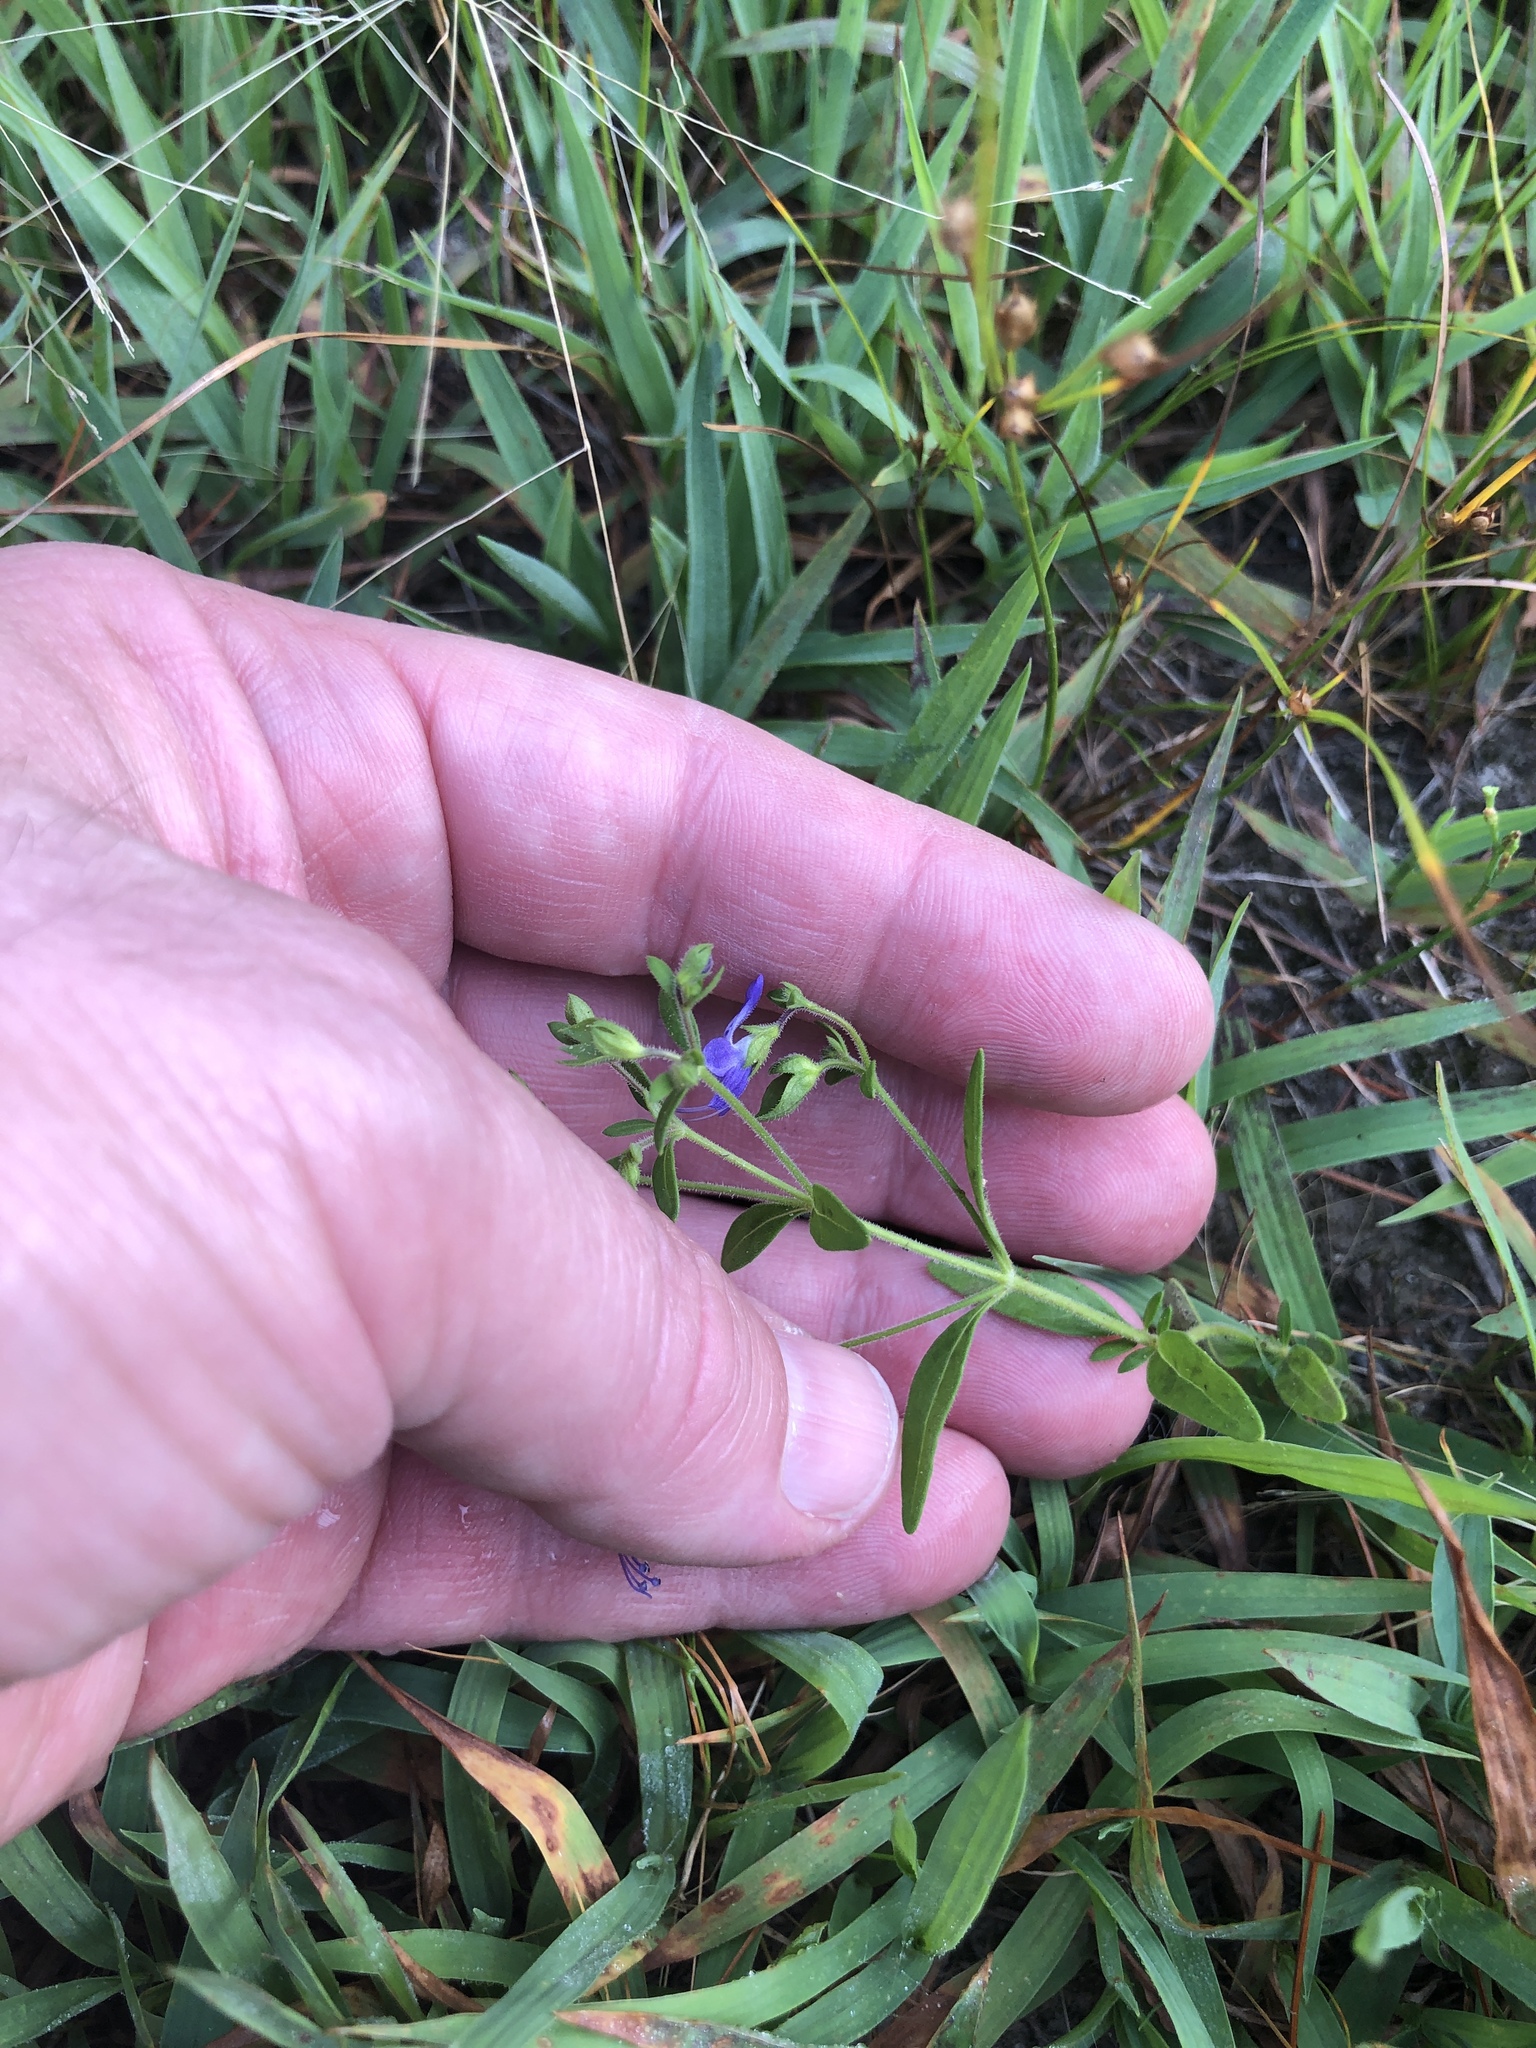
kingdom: Plantae
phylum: Tracheophyta
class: Magnoliopsida
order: Lamiales
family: Lamiaceae
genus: Trichostema
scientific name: Trichostema dichotomum
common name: Bastard pennyroyal
